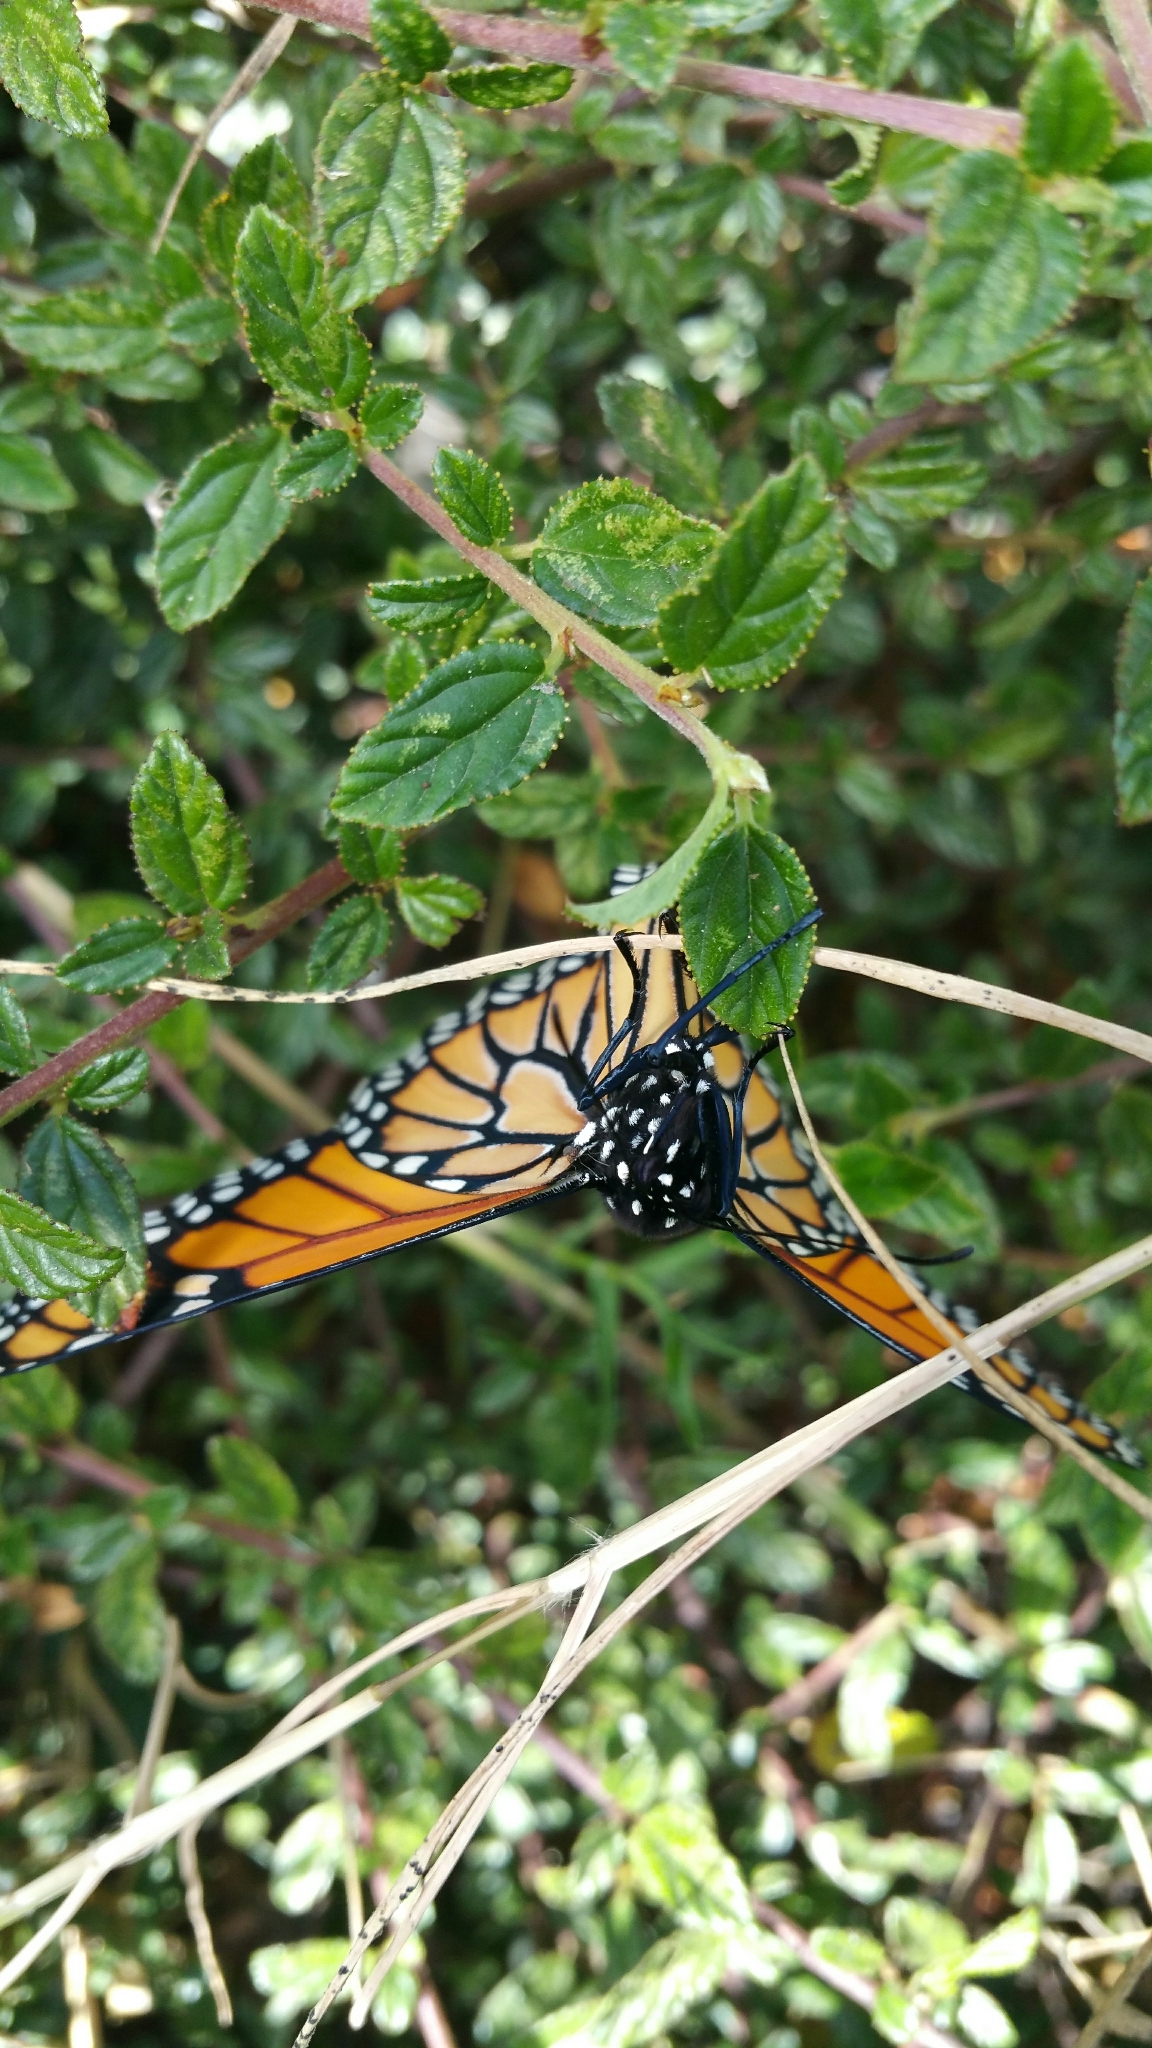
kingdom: Animalia
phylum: Arthropoda
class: Insecta
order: Lepidoptera
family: Nymphalidae
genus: Danaus
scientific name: Danaus plexippus
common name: Monarch
